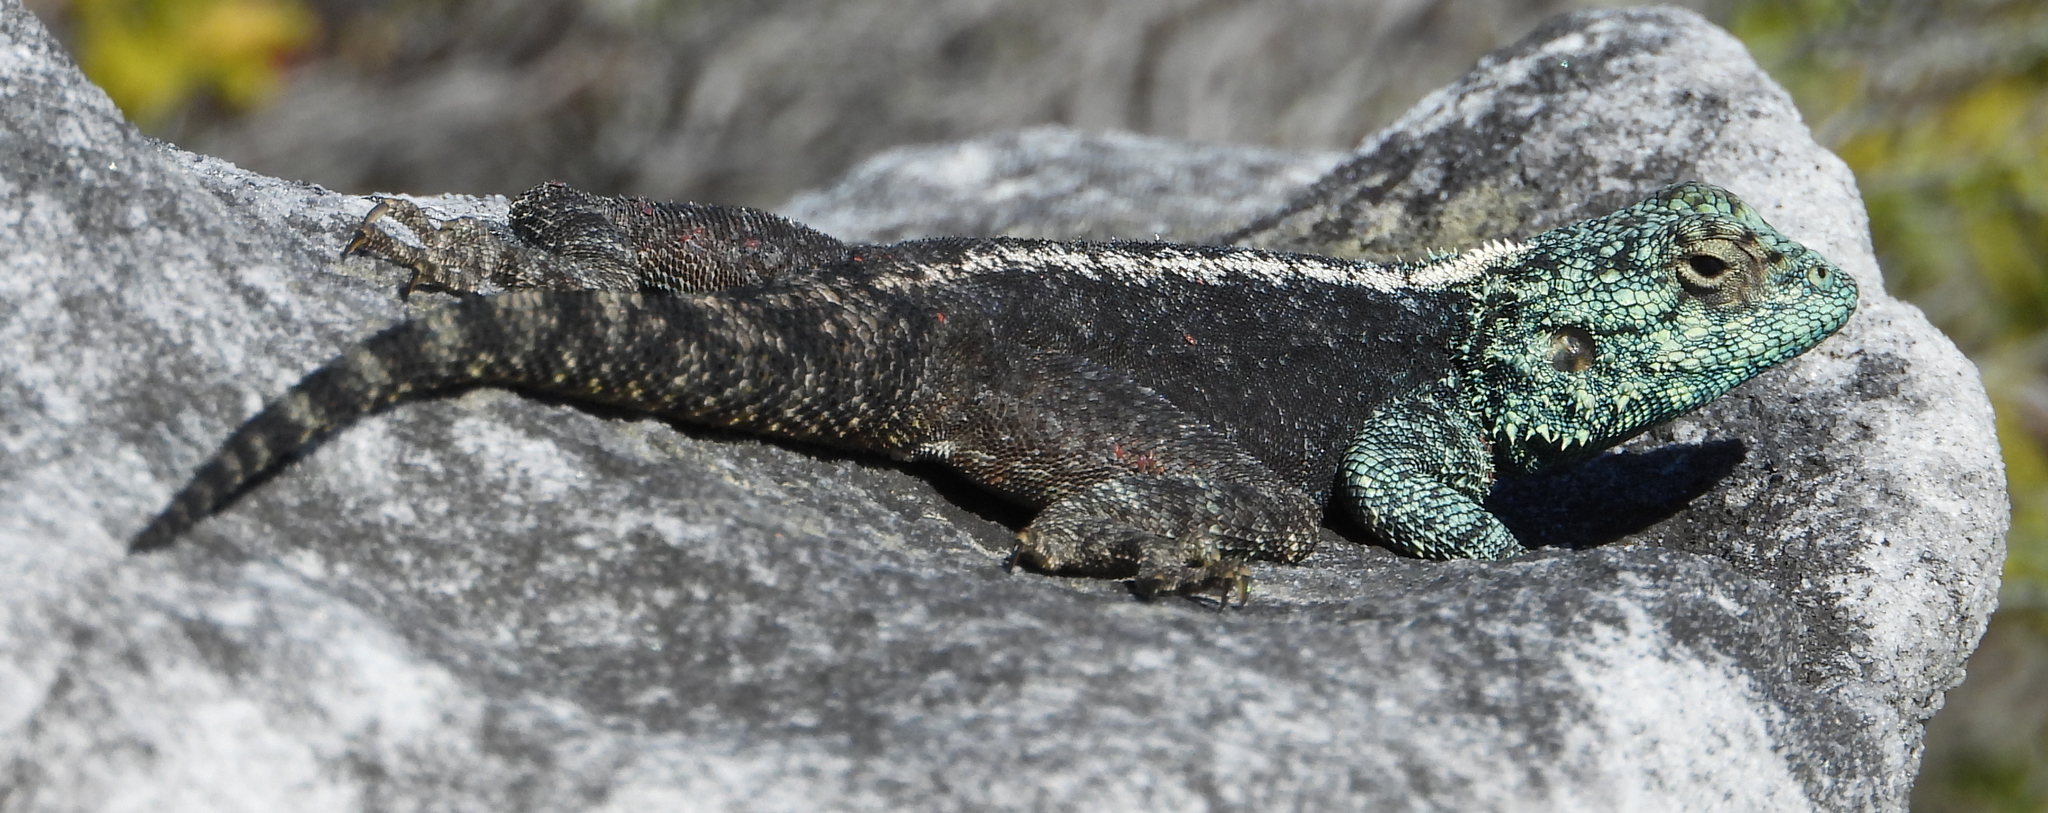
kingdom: Animalia
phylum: Chordata
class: Squamata
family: Agamidae
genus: Agama
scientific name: Agama atra
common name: Southern african rock agama
